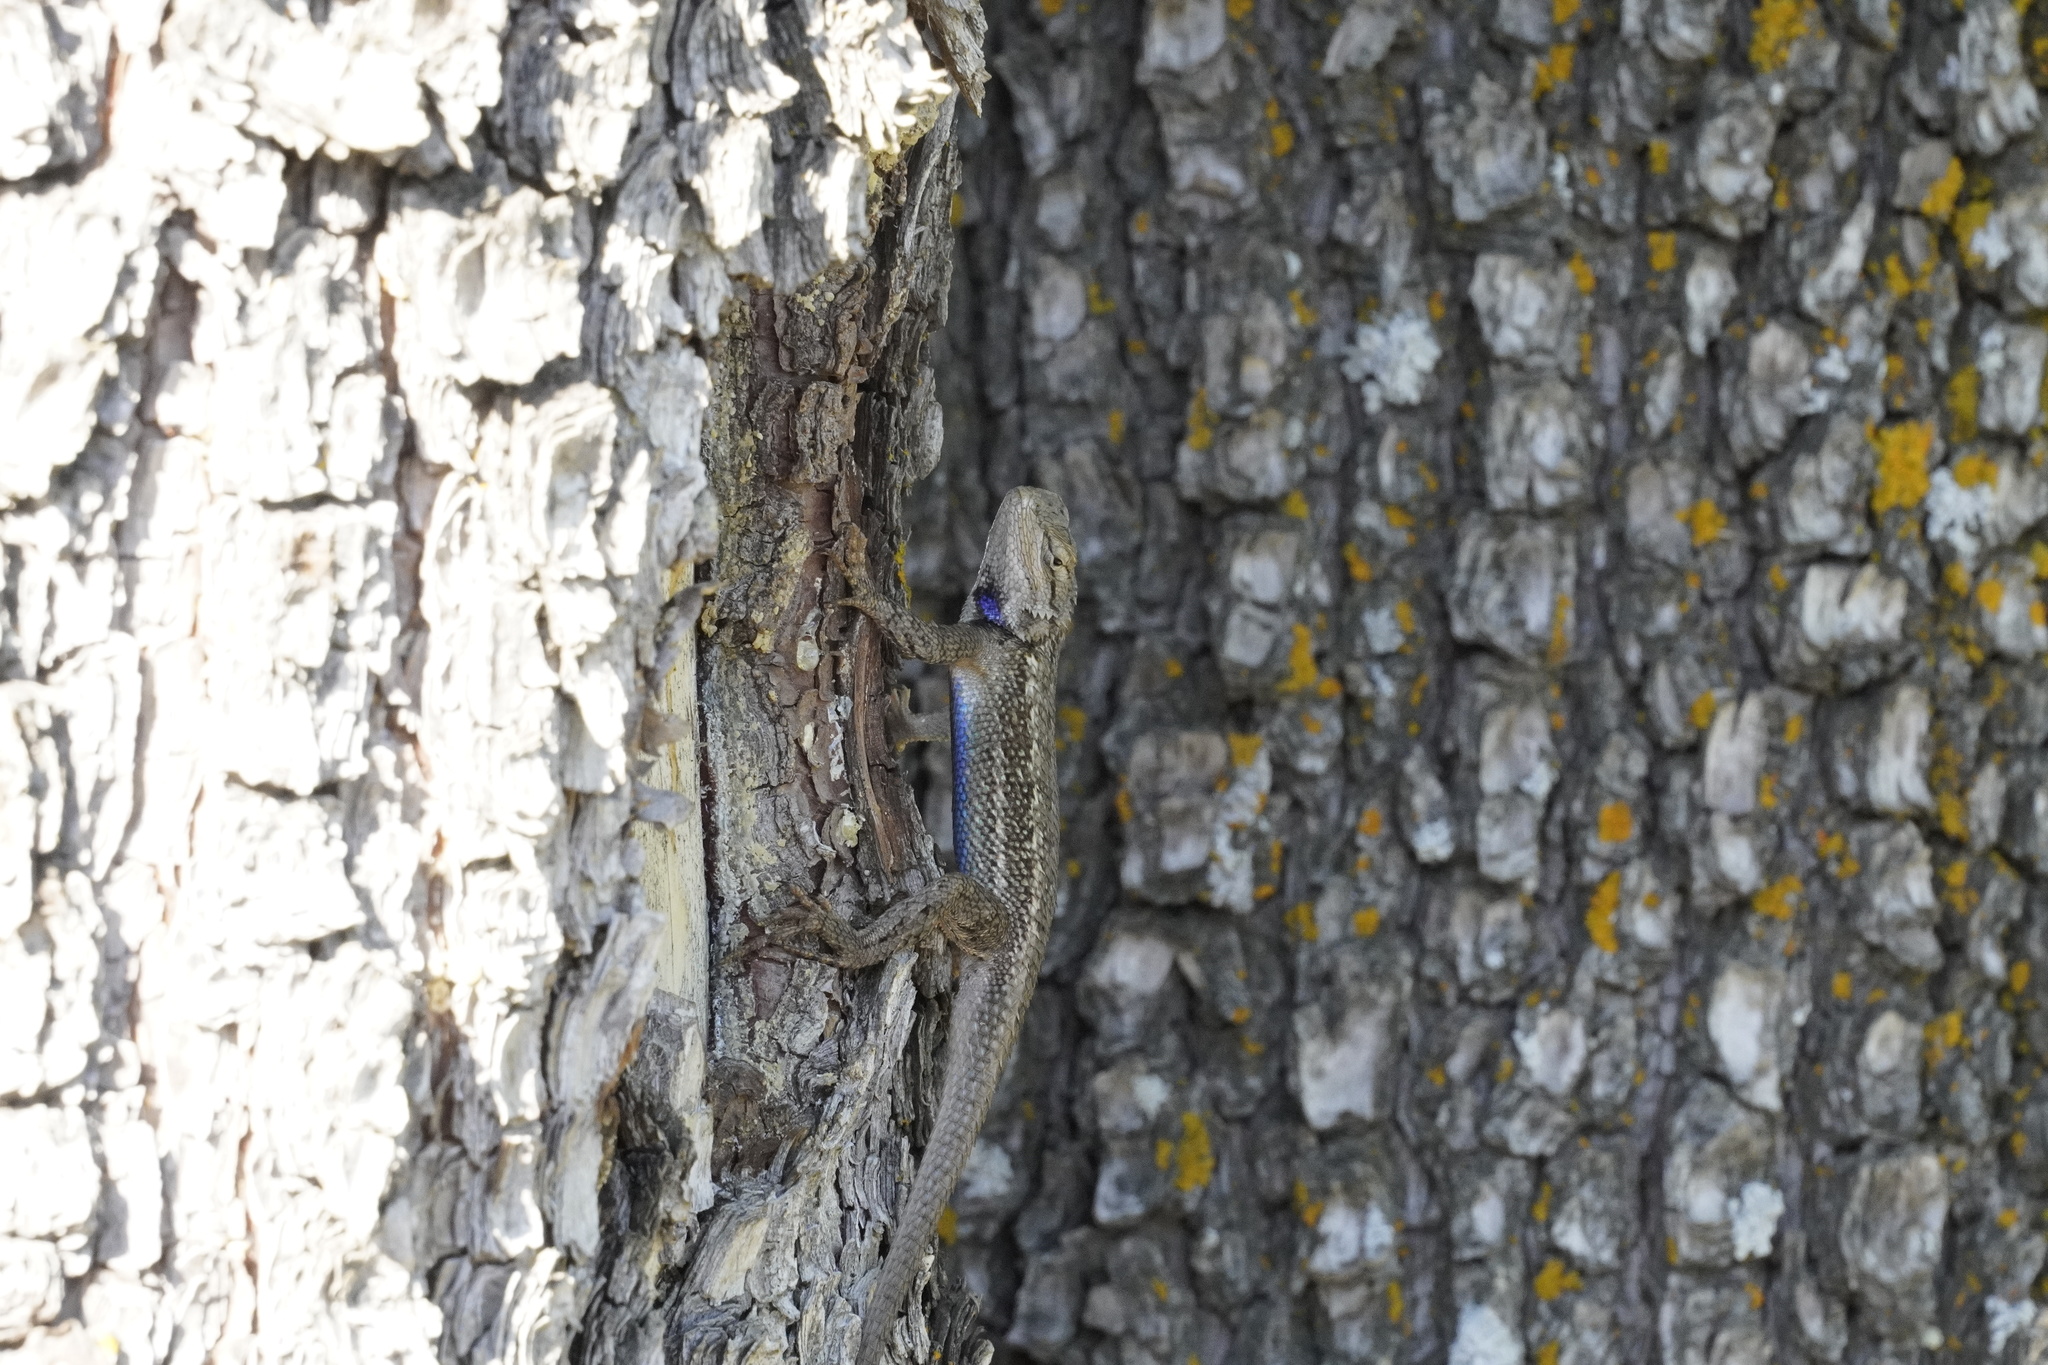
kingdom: Animalia
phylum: Chordata
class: Squamata
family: Phrynosomatidae
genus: Sceloporus
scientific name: Sceloporus tristichus
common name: Plateau fence lizard
